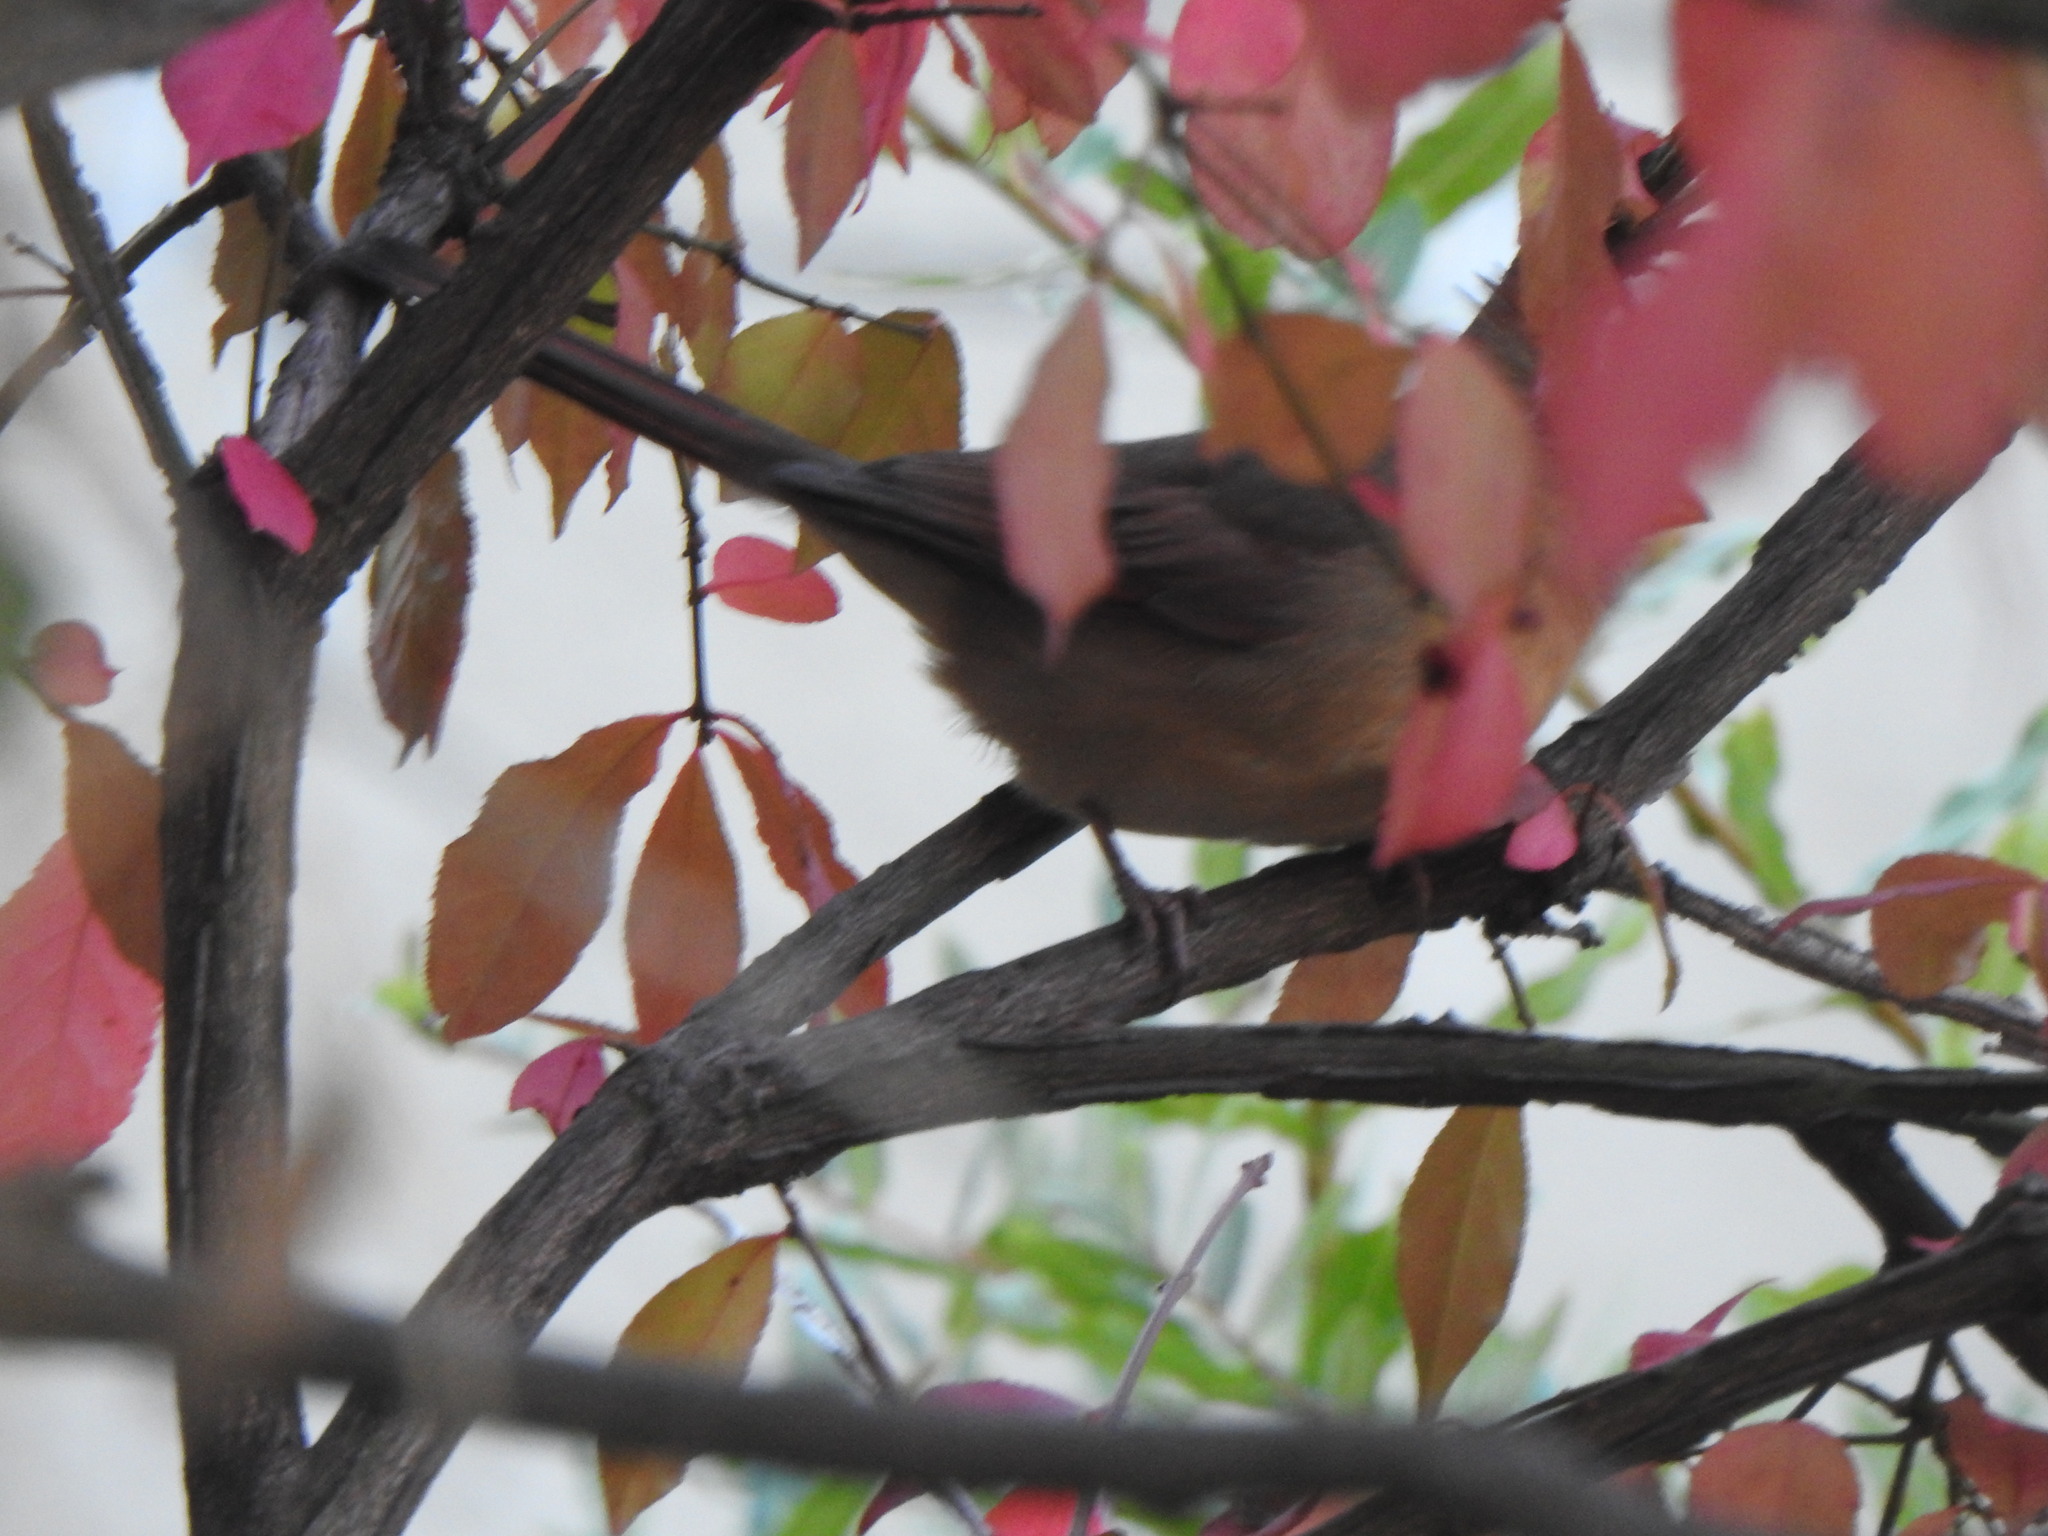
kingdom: Animalia
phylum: Chordata
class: Aves
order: Passeriformes
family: Cardinalidae
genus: Cardinalis
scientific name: Cardinalis cardinalis
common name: Northern cardinal
